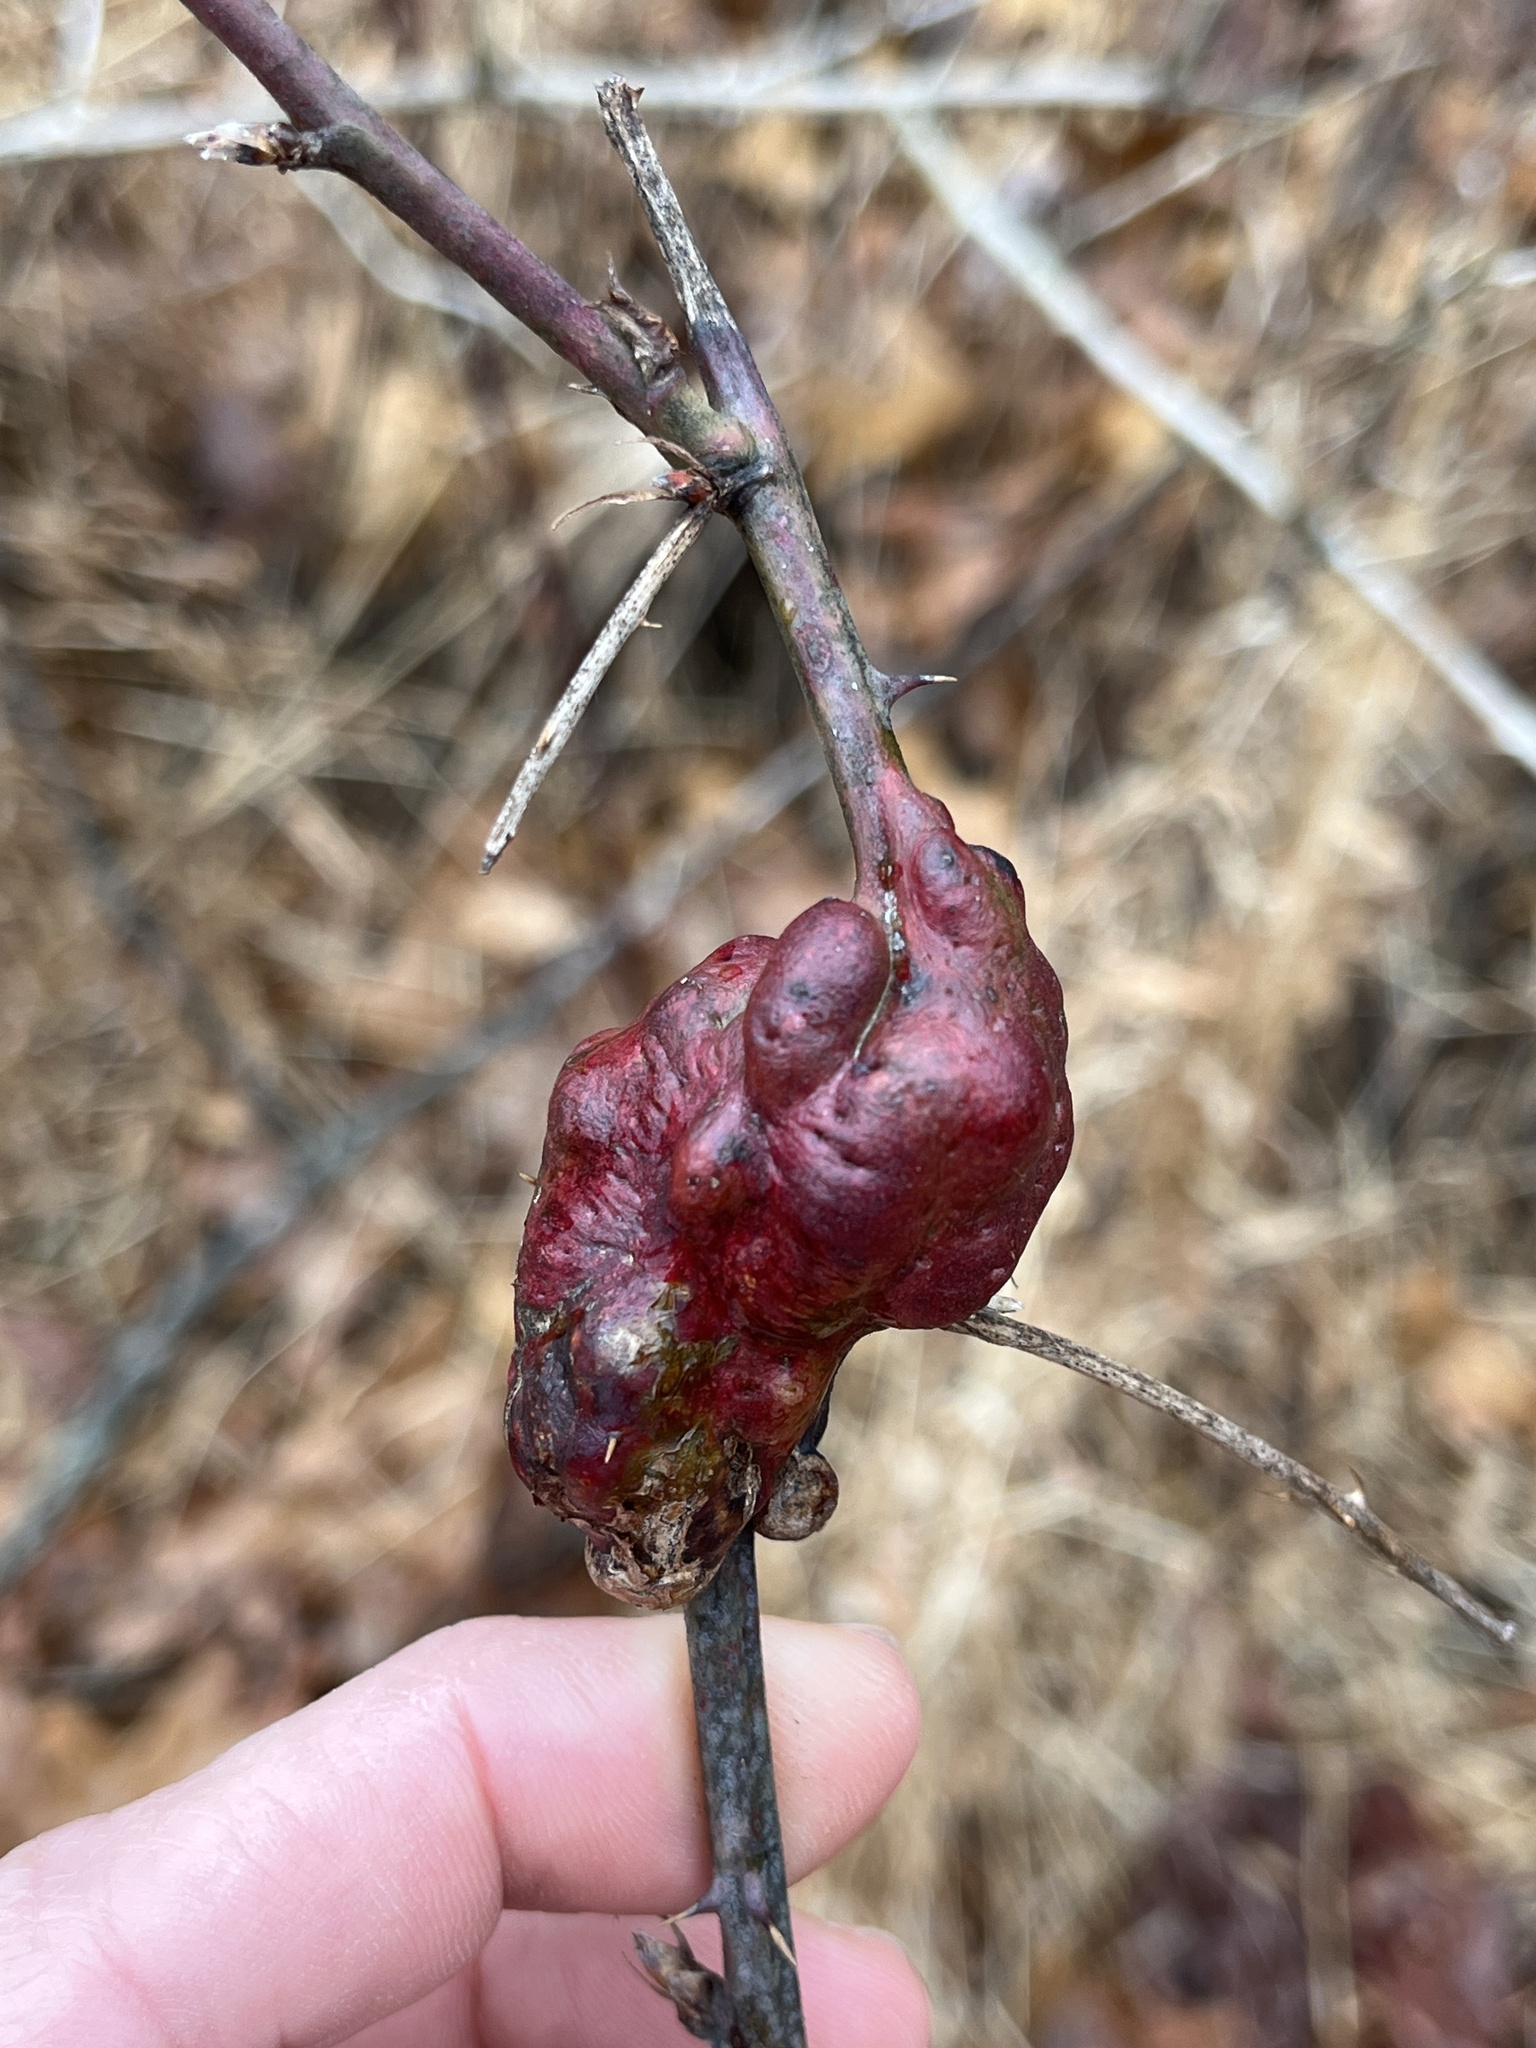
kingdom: Animalia
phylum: Arthropoda
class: Insecta
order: Hymenoptera
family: Cynipidae
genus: Diastrophus
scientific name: Diastrophus
